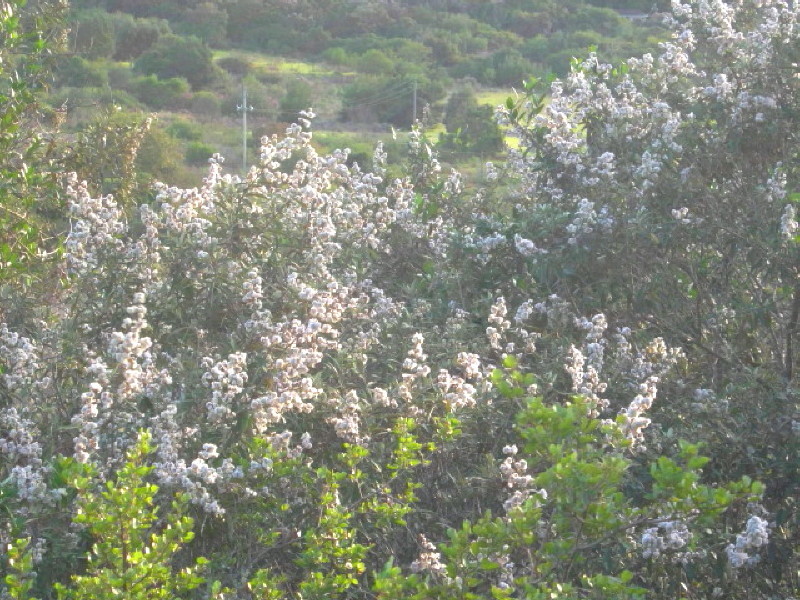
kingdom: Plantae
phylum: Tracheophyta
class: Magnoliopsida
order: Asterales
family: Asteraceae
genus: Tarchonanthus
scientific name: Tarchonanthus littoralis
